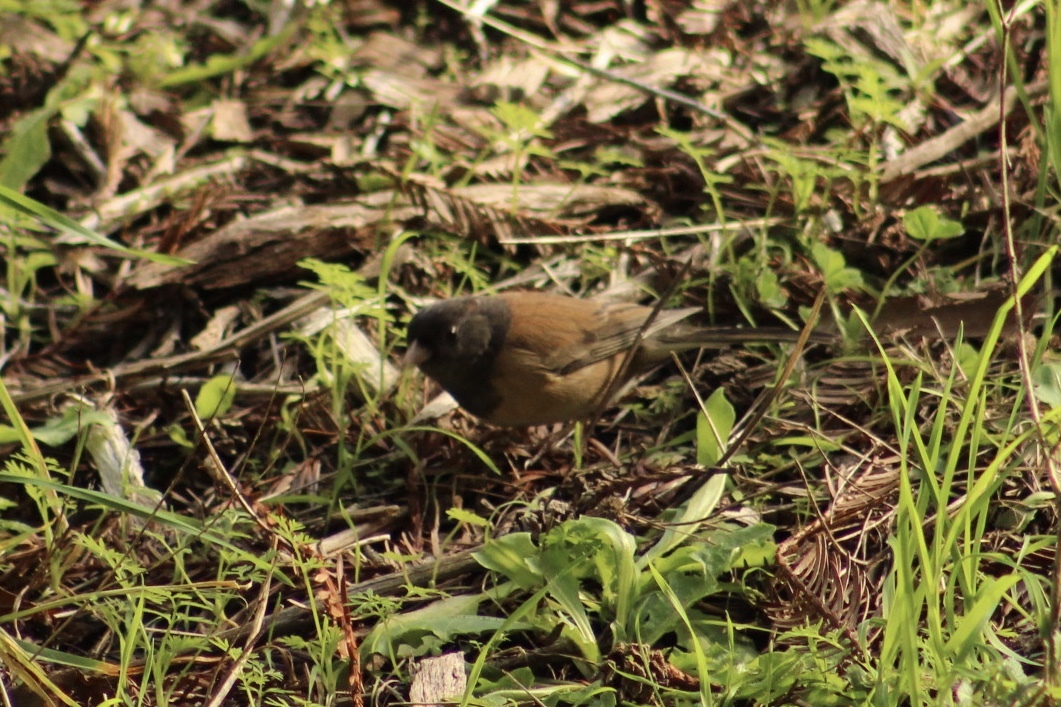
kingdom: Animalia
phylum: Chordata
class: Aves
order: Passeriformes
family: Passerellidae
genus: Junco
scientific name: Junco hyemalis
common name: Dark-eyed junco
